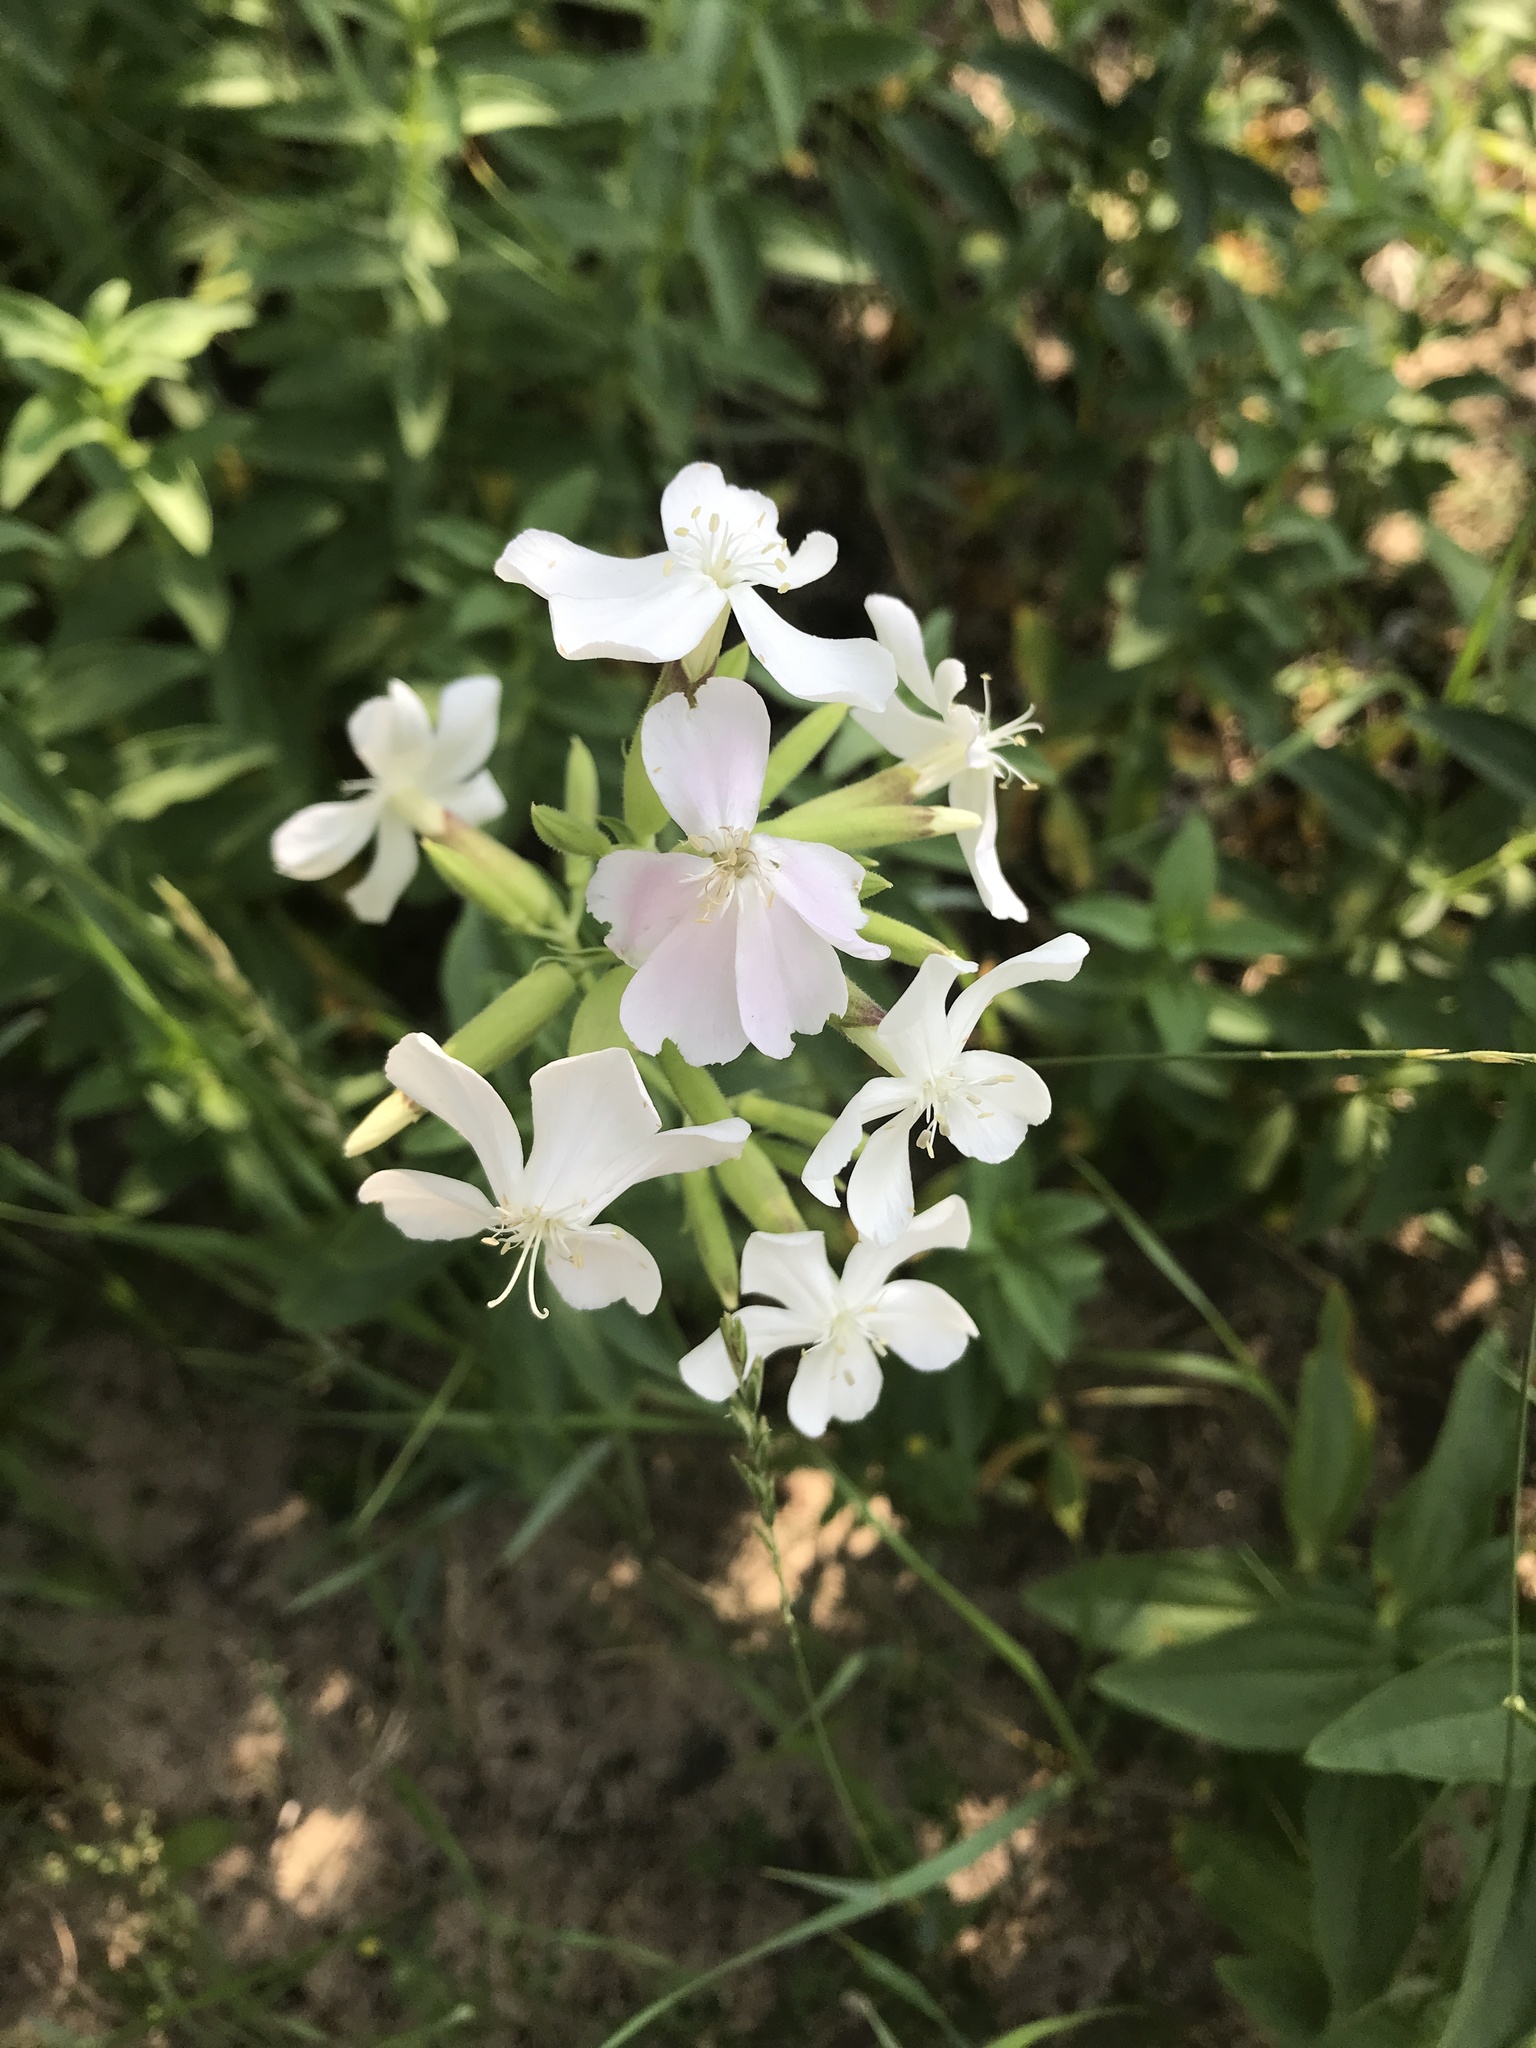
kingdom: Plantae
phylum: Tracheophyta
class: Magnoliopsida
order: Caryophyllales
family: Caryophyllaceae
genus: Saponaria
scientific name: Saponaria officinalis
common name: Soapwort
